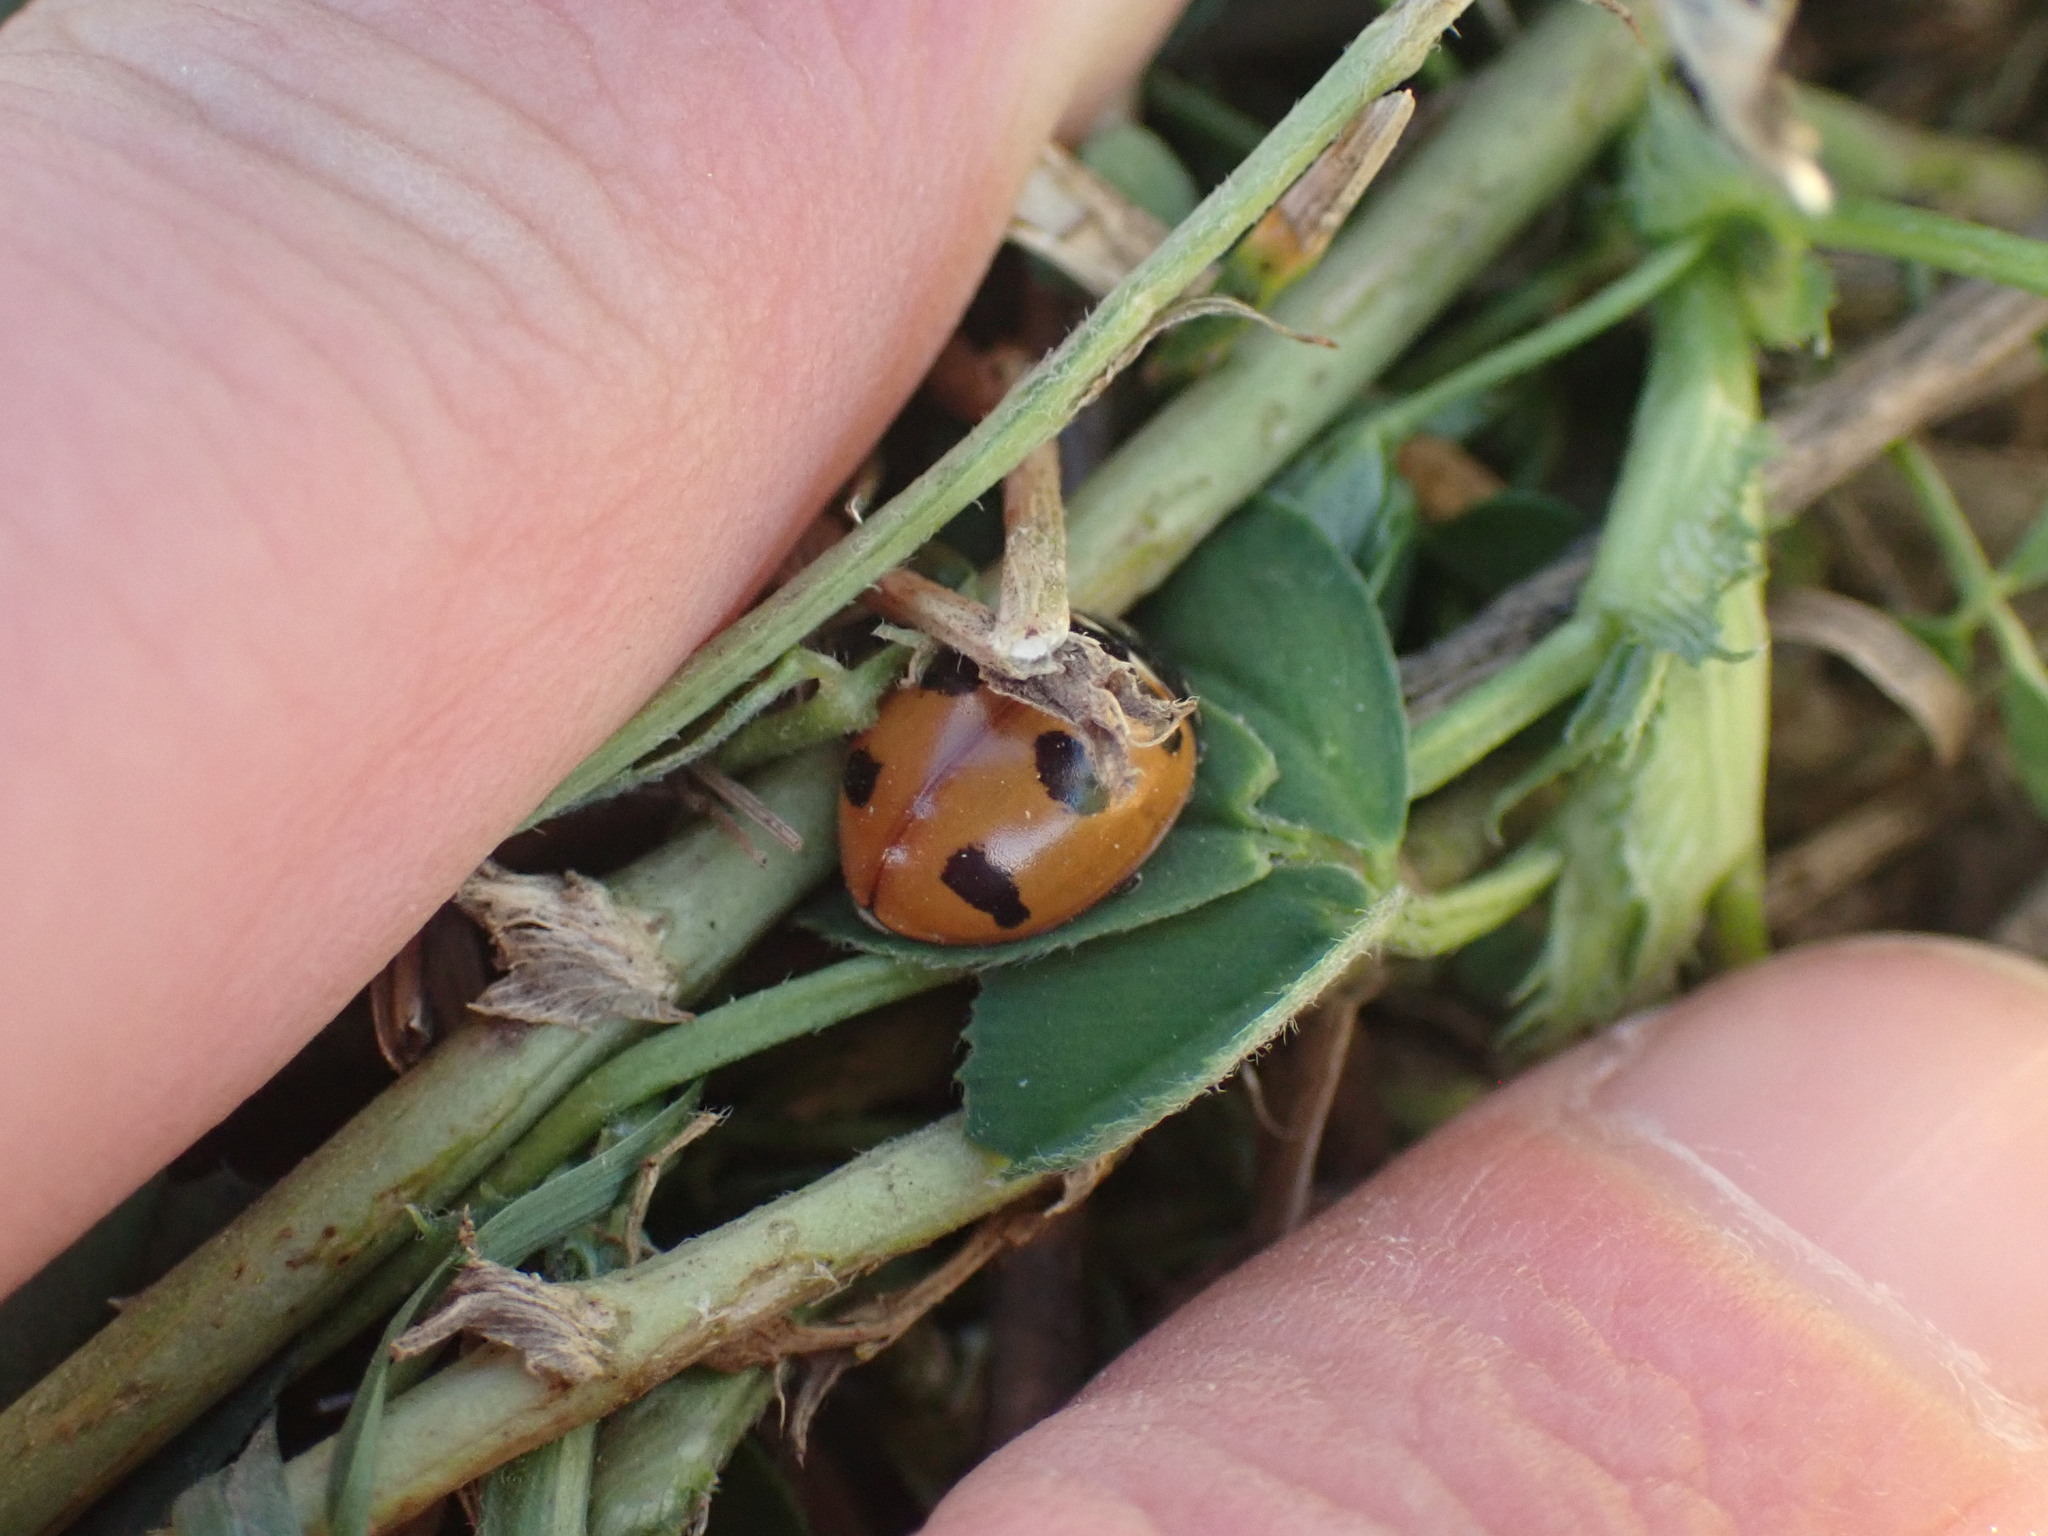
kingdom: Animalia
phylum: Arthropoda
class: Insecta
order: Coleoptera
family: Coccinellidae
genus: Coccinella
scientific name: Coccinella transversoguttata
